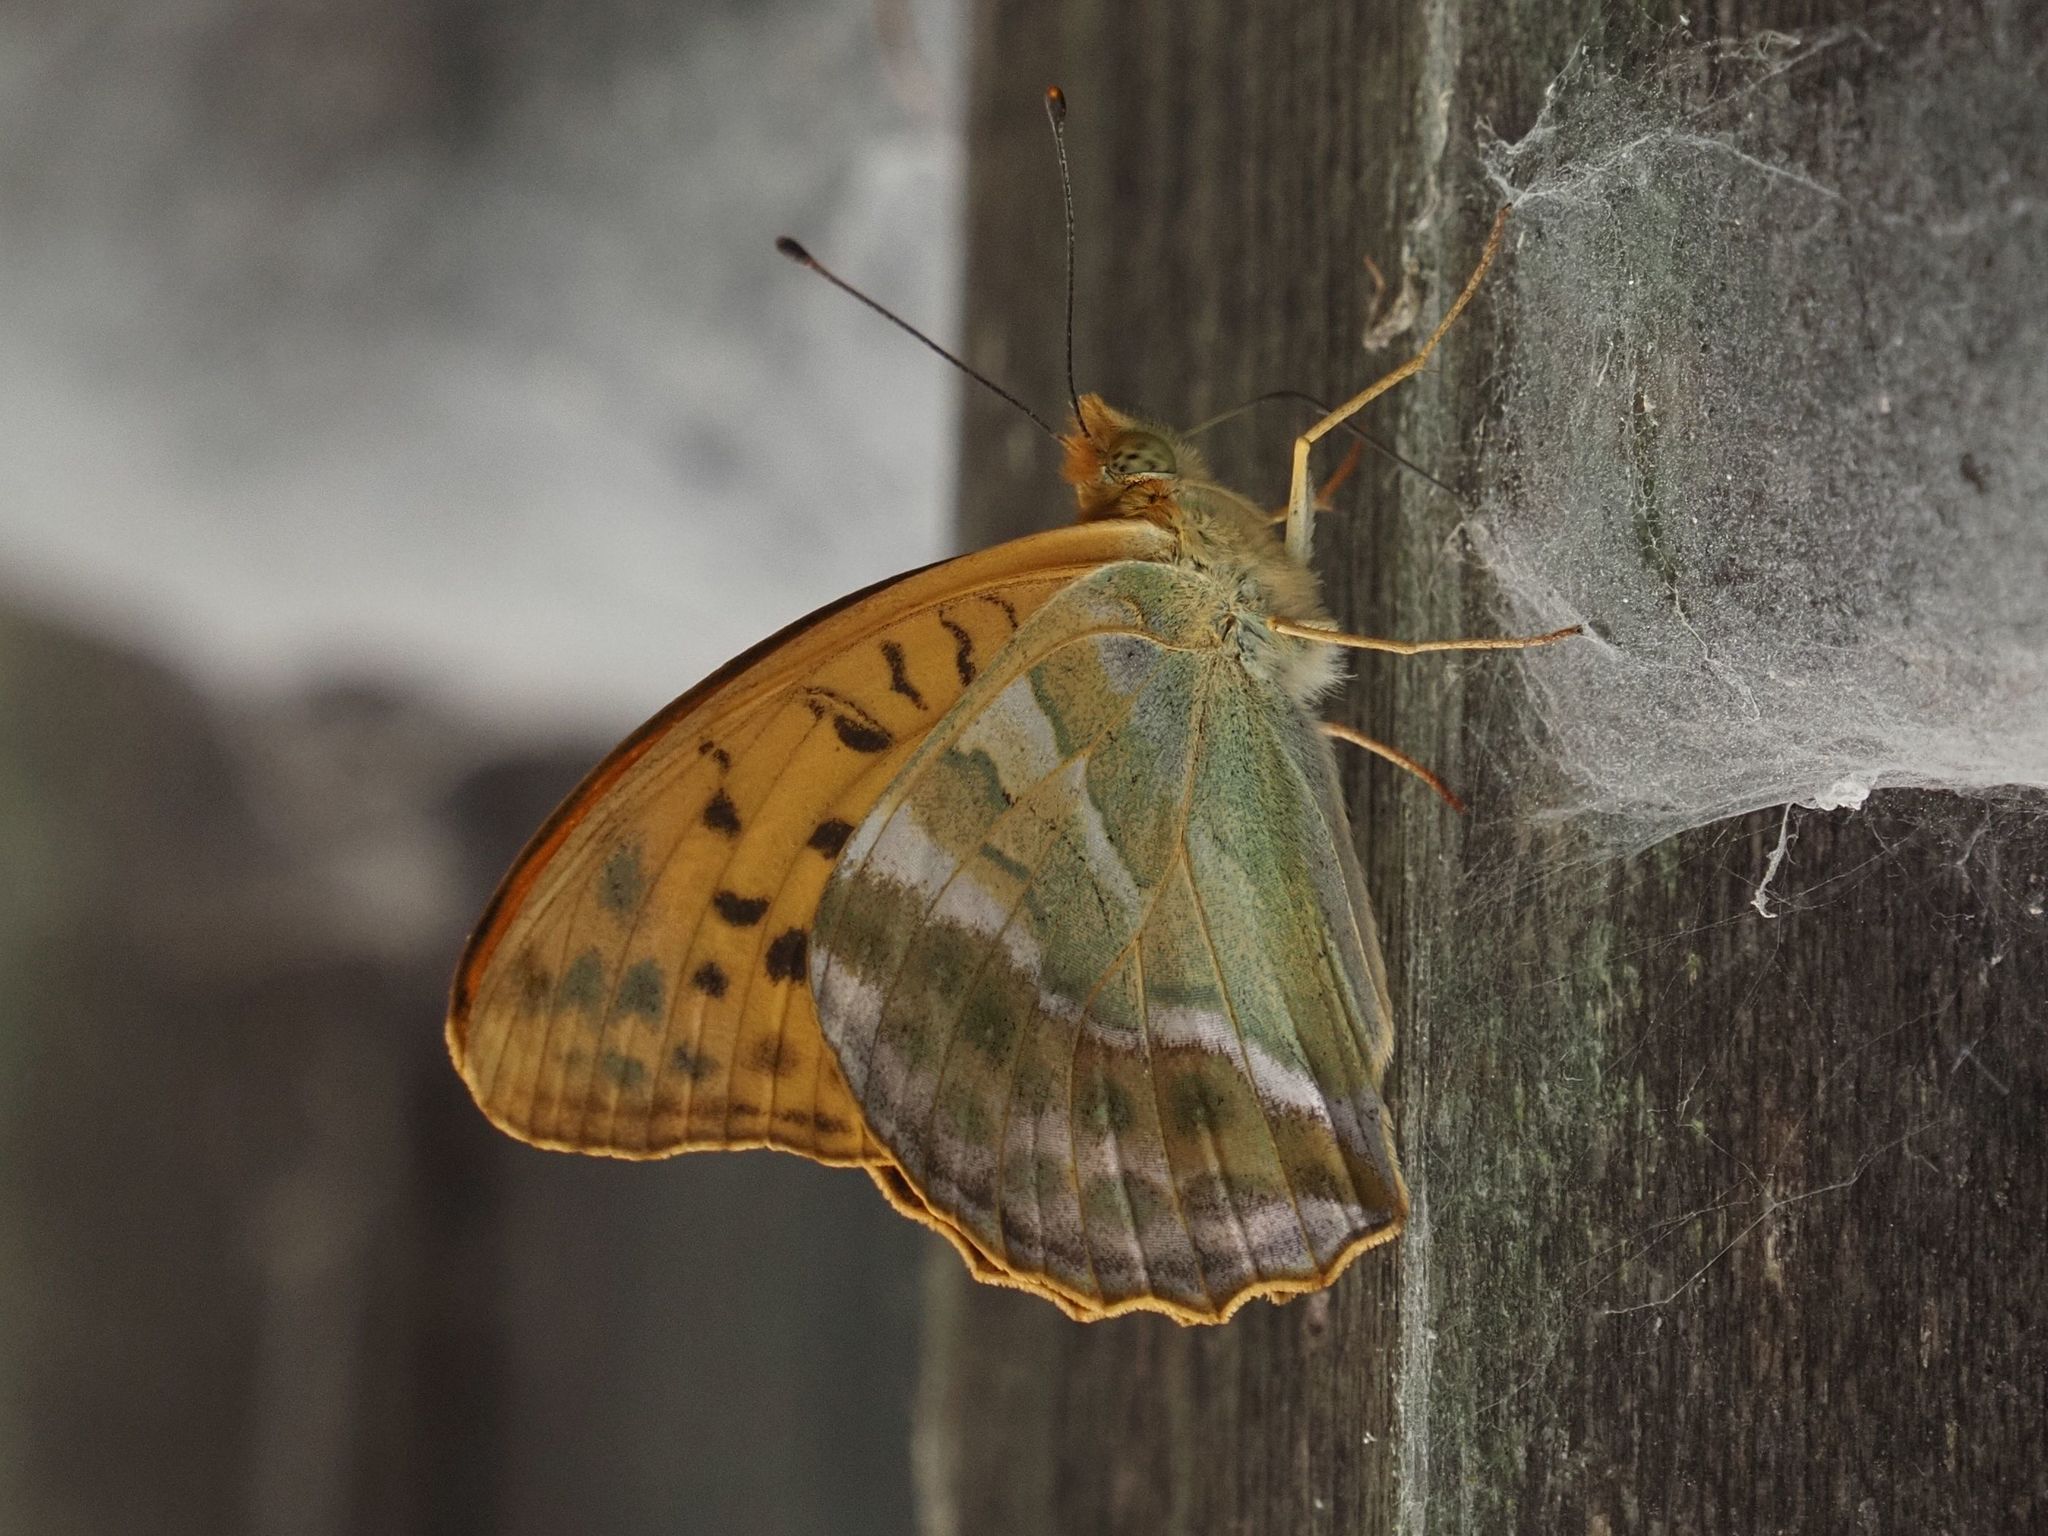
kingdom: Animalia
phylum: Arthropoda
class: Insecta
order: Lepidoptera
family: Nymphalidae
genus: Argynnis
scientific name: Argynnis paphia
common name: Silver-washed fritillary
